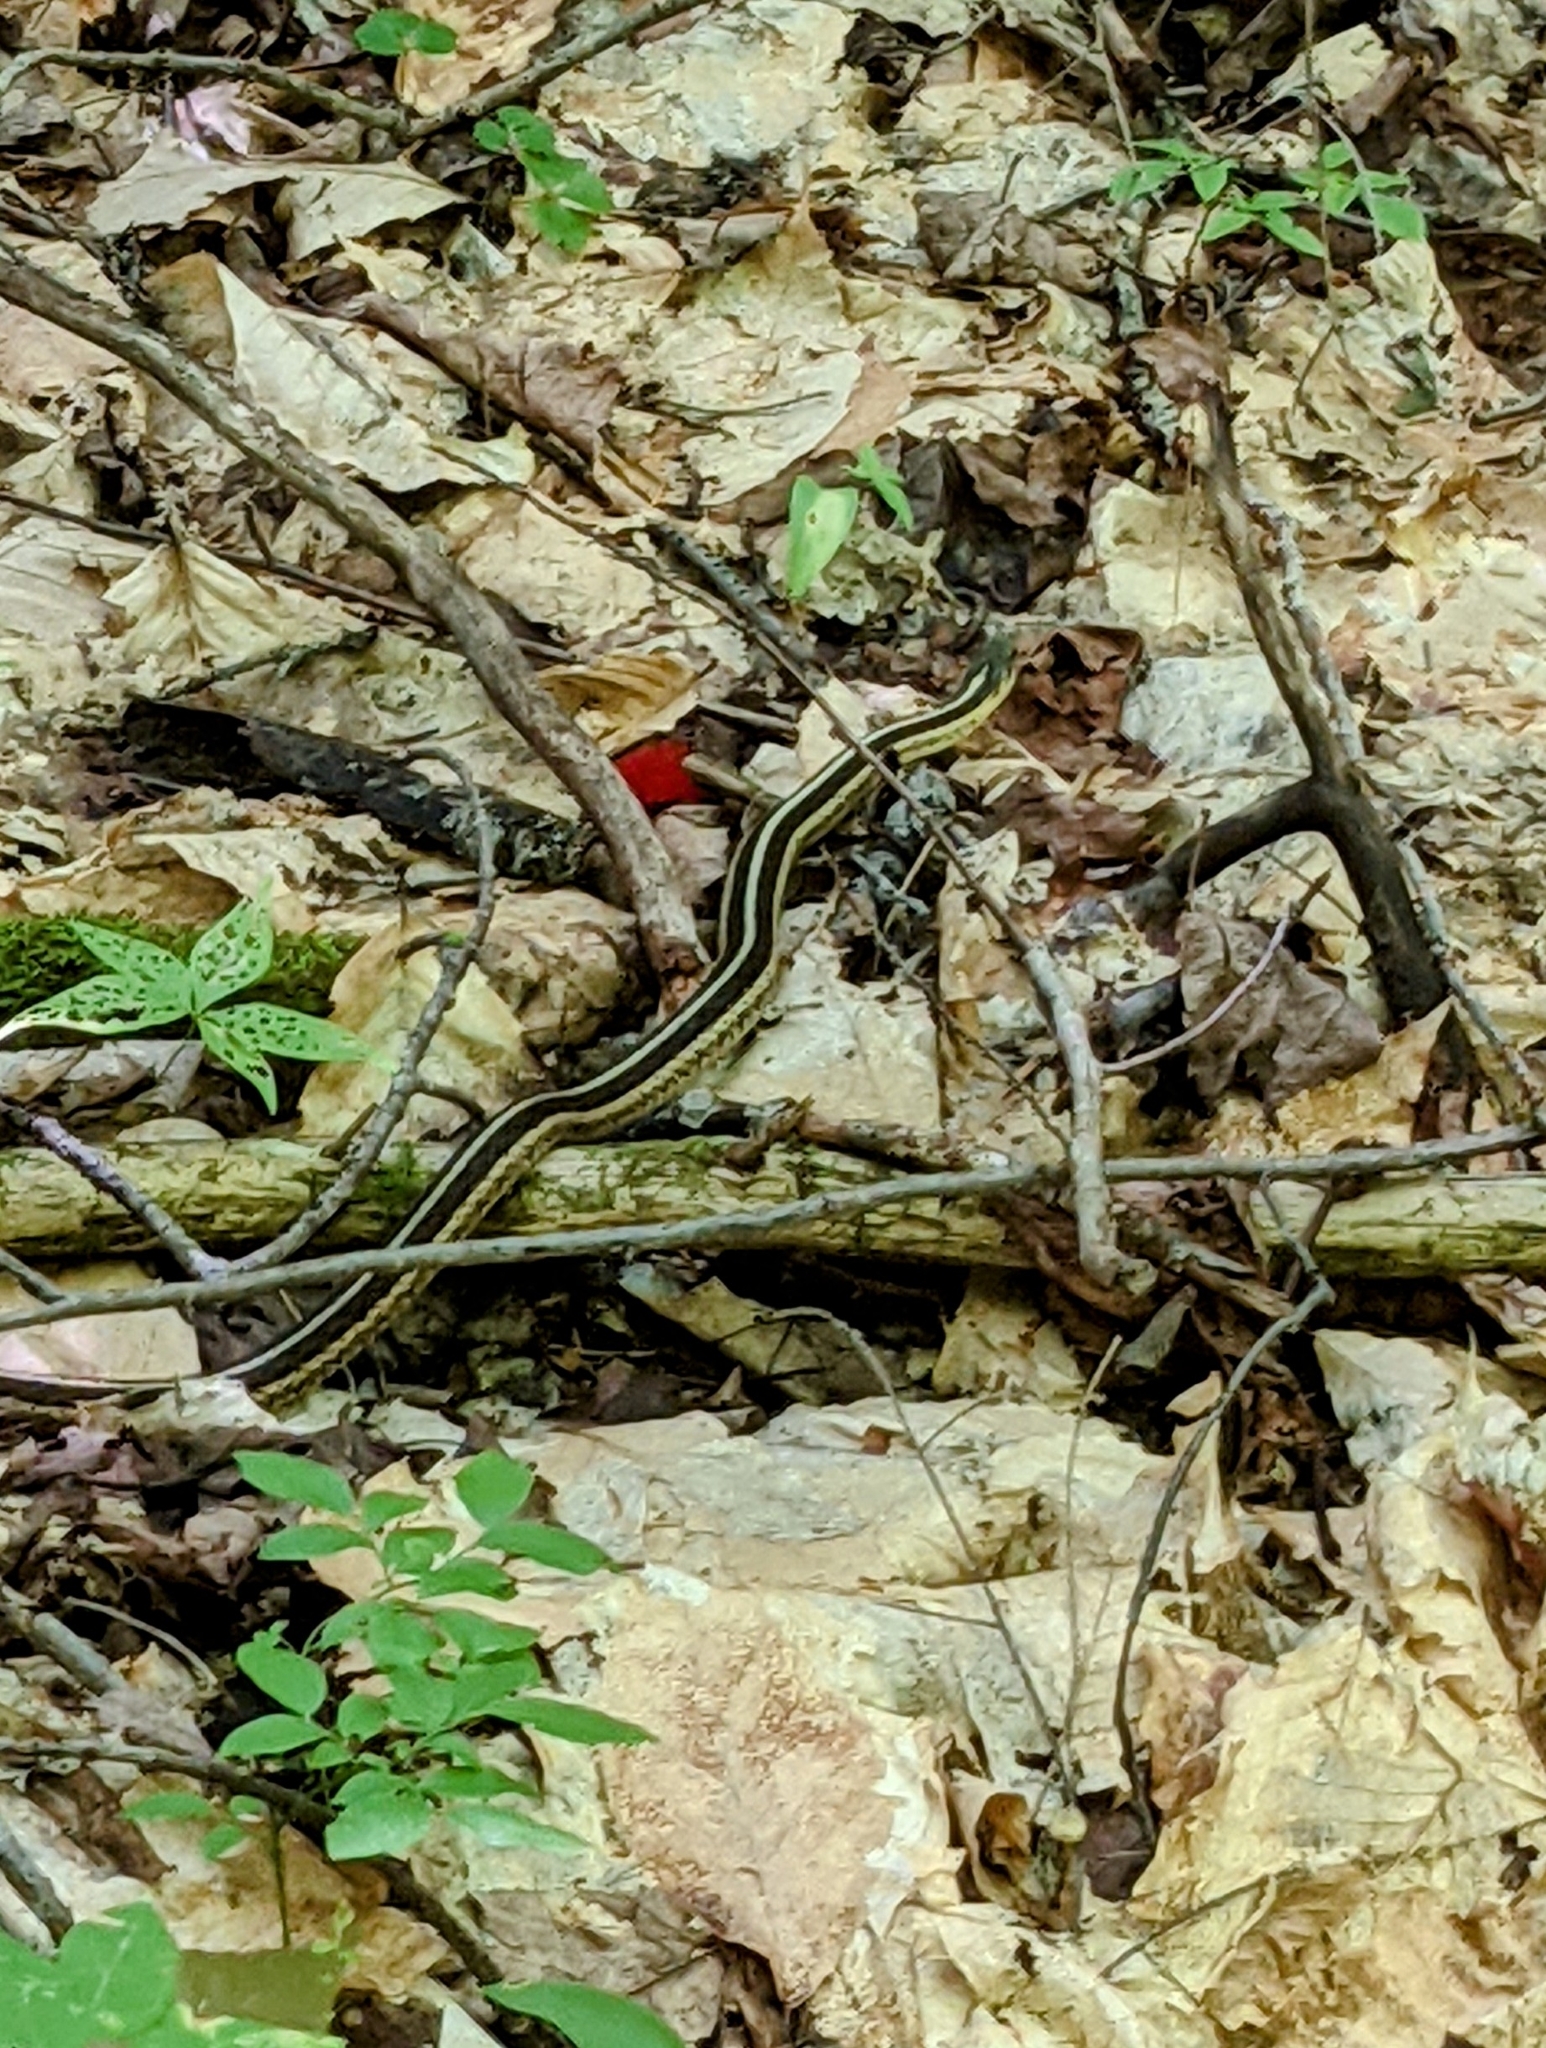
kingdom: Animalia
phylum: Chordata
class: Squamata
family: Colubridae
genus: Thamnophis
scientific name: Thamnophis sirtalis
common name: Common garter snake
